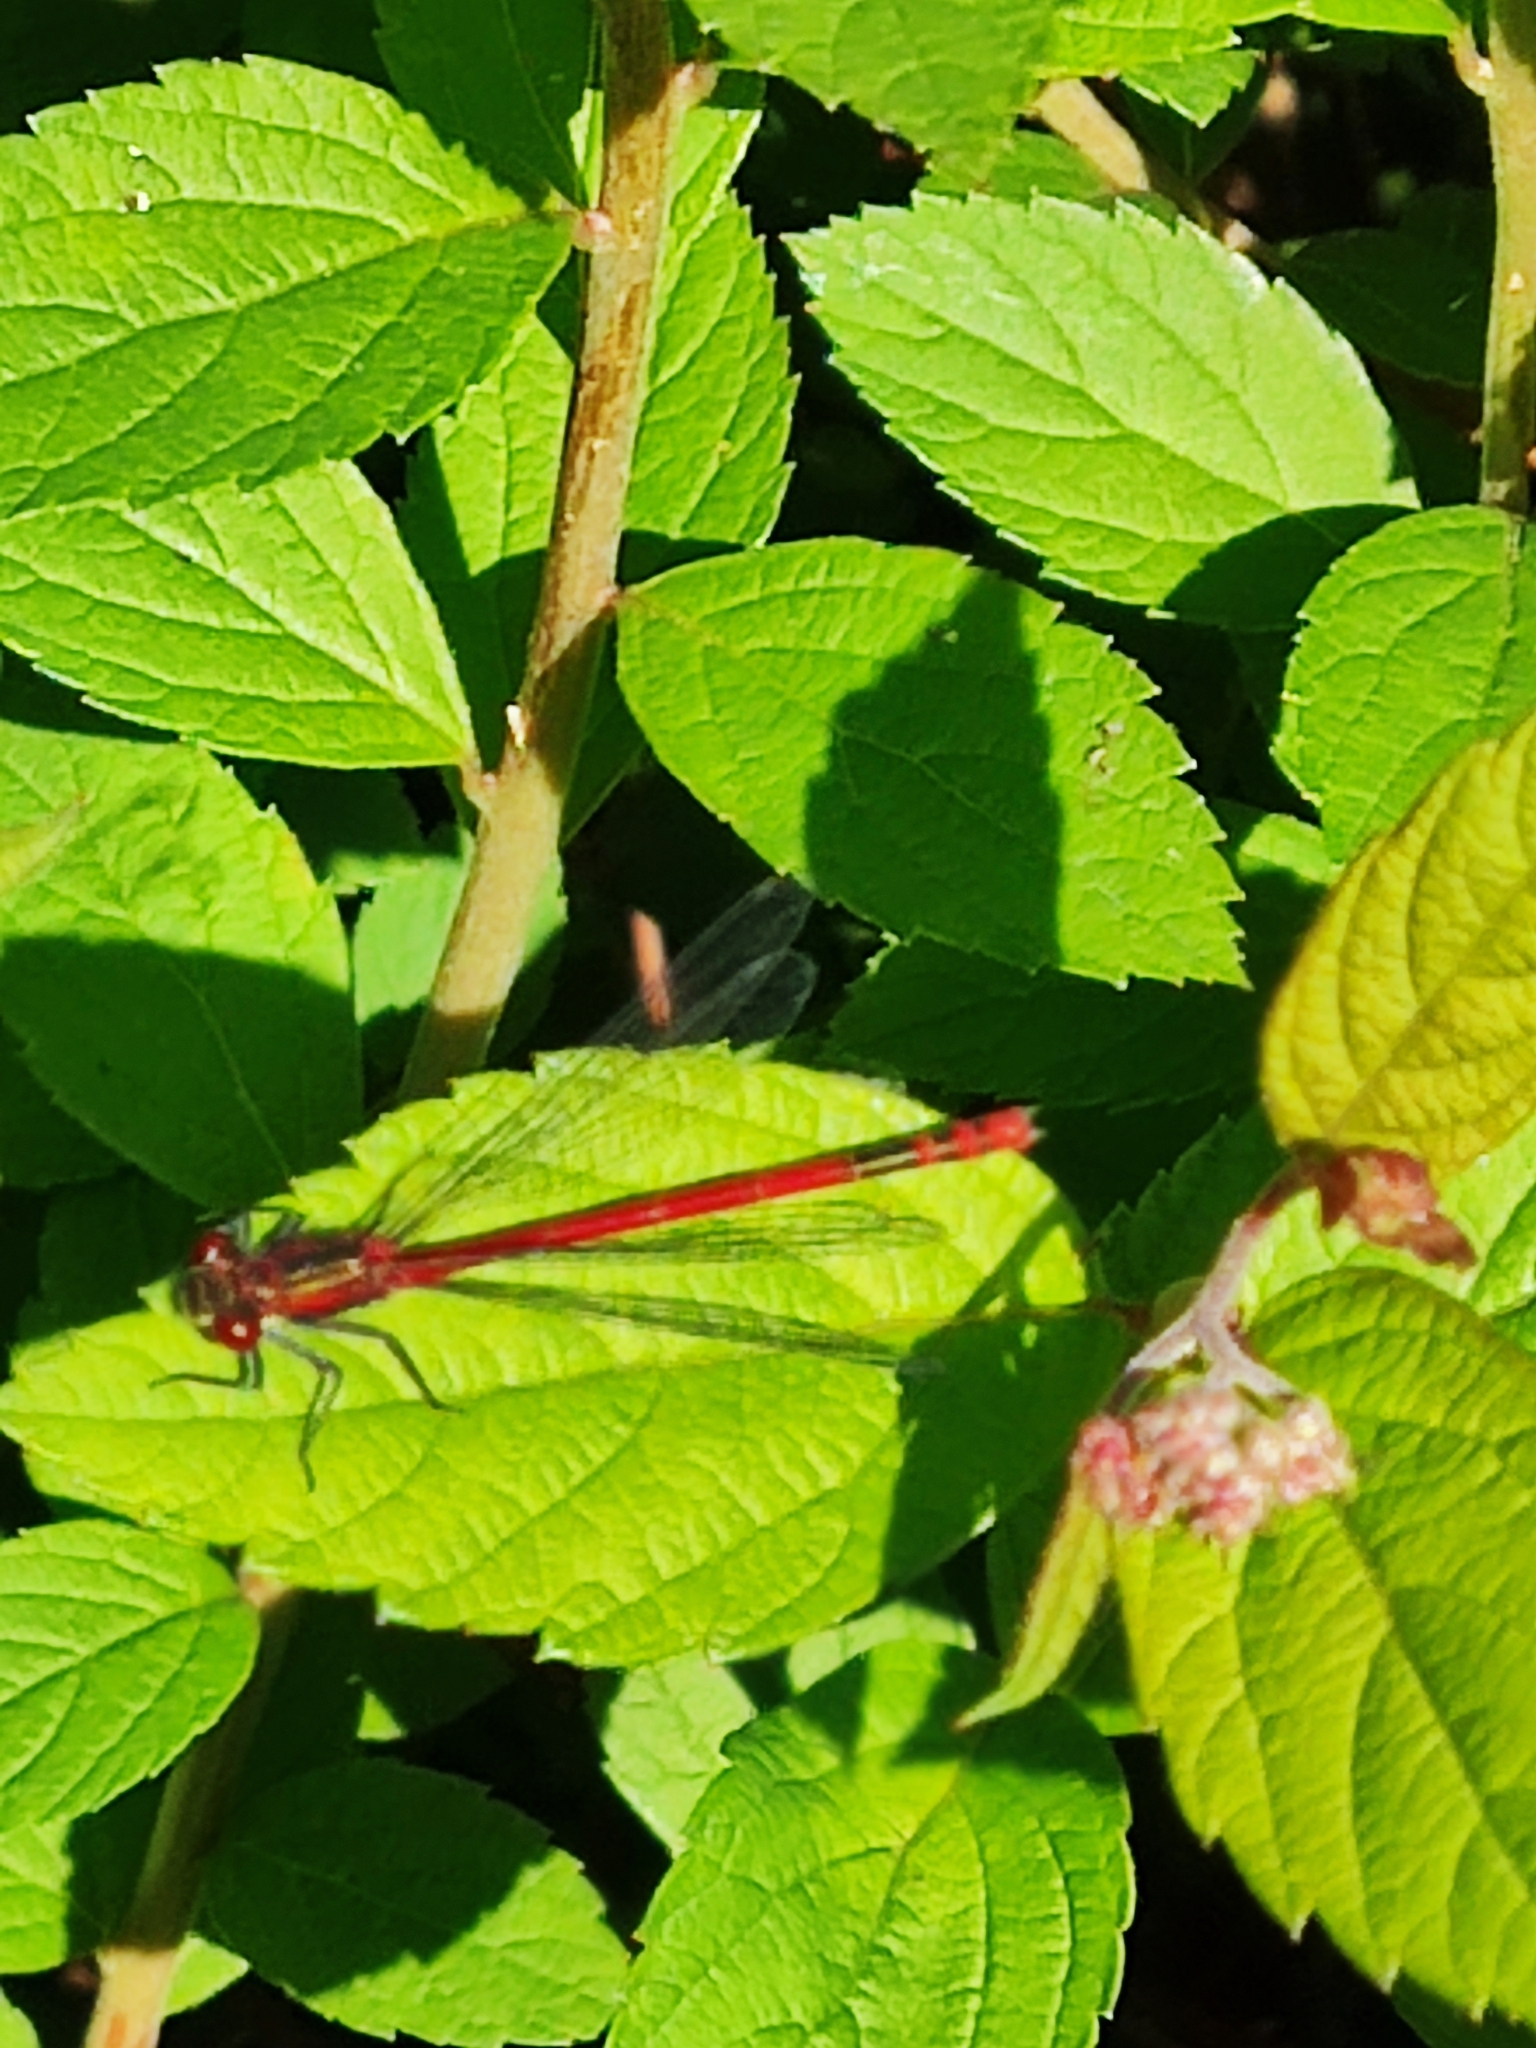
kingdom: Animalia
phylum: Arthropoda
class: Insecta
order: Odonata
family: Coenagrionidae
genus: Pyrrhosoma
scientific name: Pyrrhosoma nymphula
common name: Large red damsel
